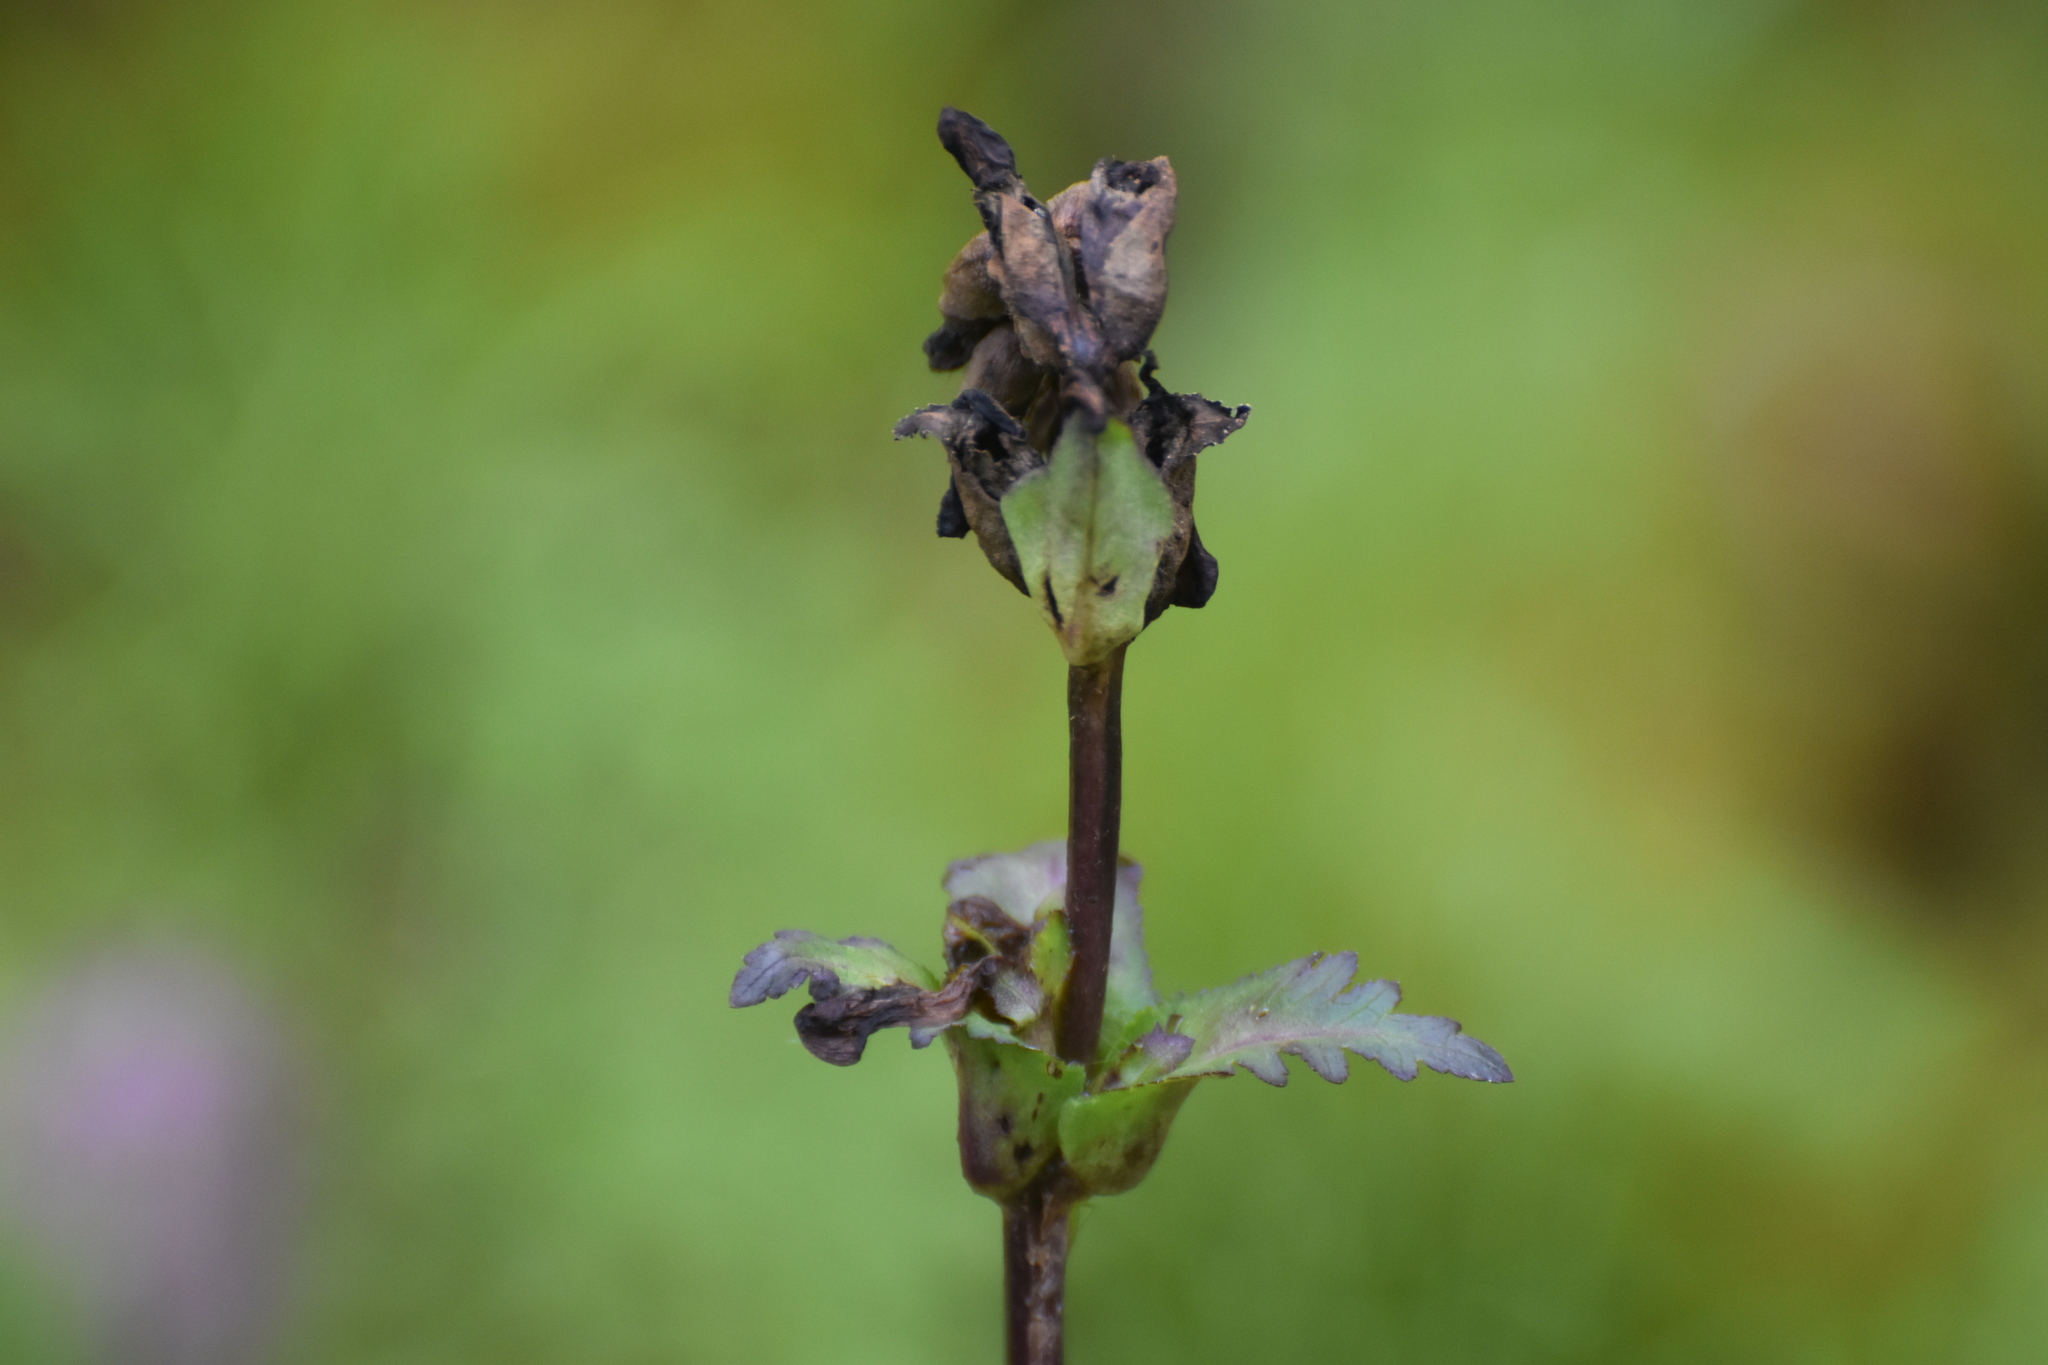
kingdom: Plantae
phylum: Tracheophyta
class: Magnoliopsida
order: Lamiales
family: Orobanchaceae
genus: Pedicularis
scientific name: Pedicularis sceptrum-carolinum
